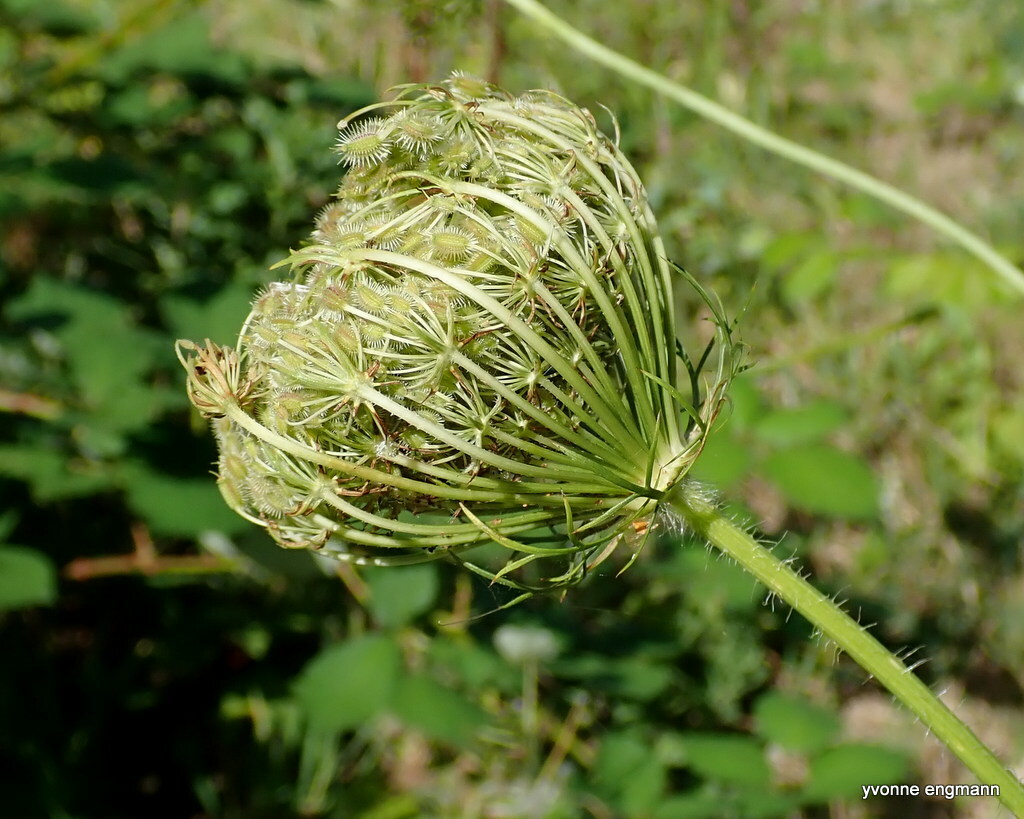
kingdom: Plantae
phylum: Tracheophyta
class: Magnoliopsida
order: Apiales
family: Apiaceae
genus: Daucus
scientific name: Daucus carota
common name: Wild carrot
